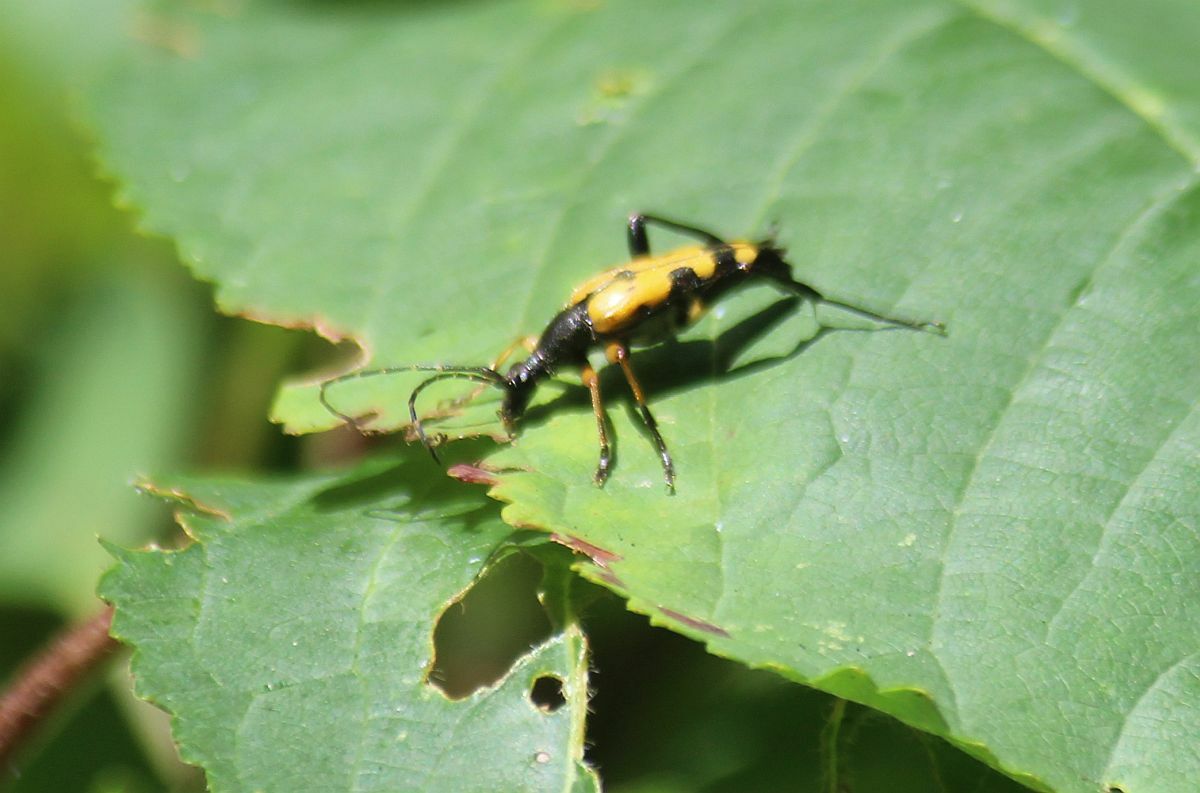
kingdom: Animalia
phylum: Arthropoda
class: Insecta
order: Coleoptera
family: Cerambycidae
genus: Rutpela
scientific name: Rutpela maculata
